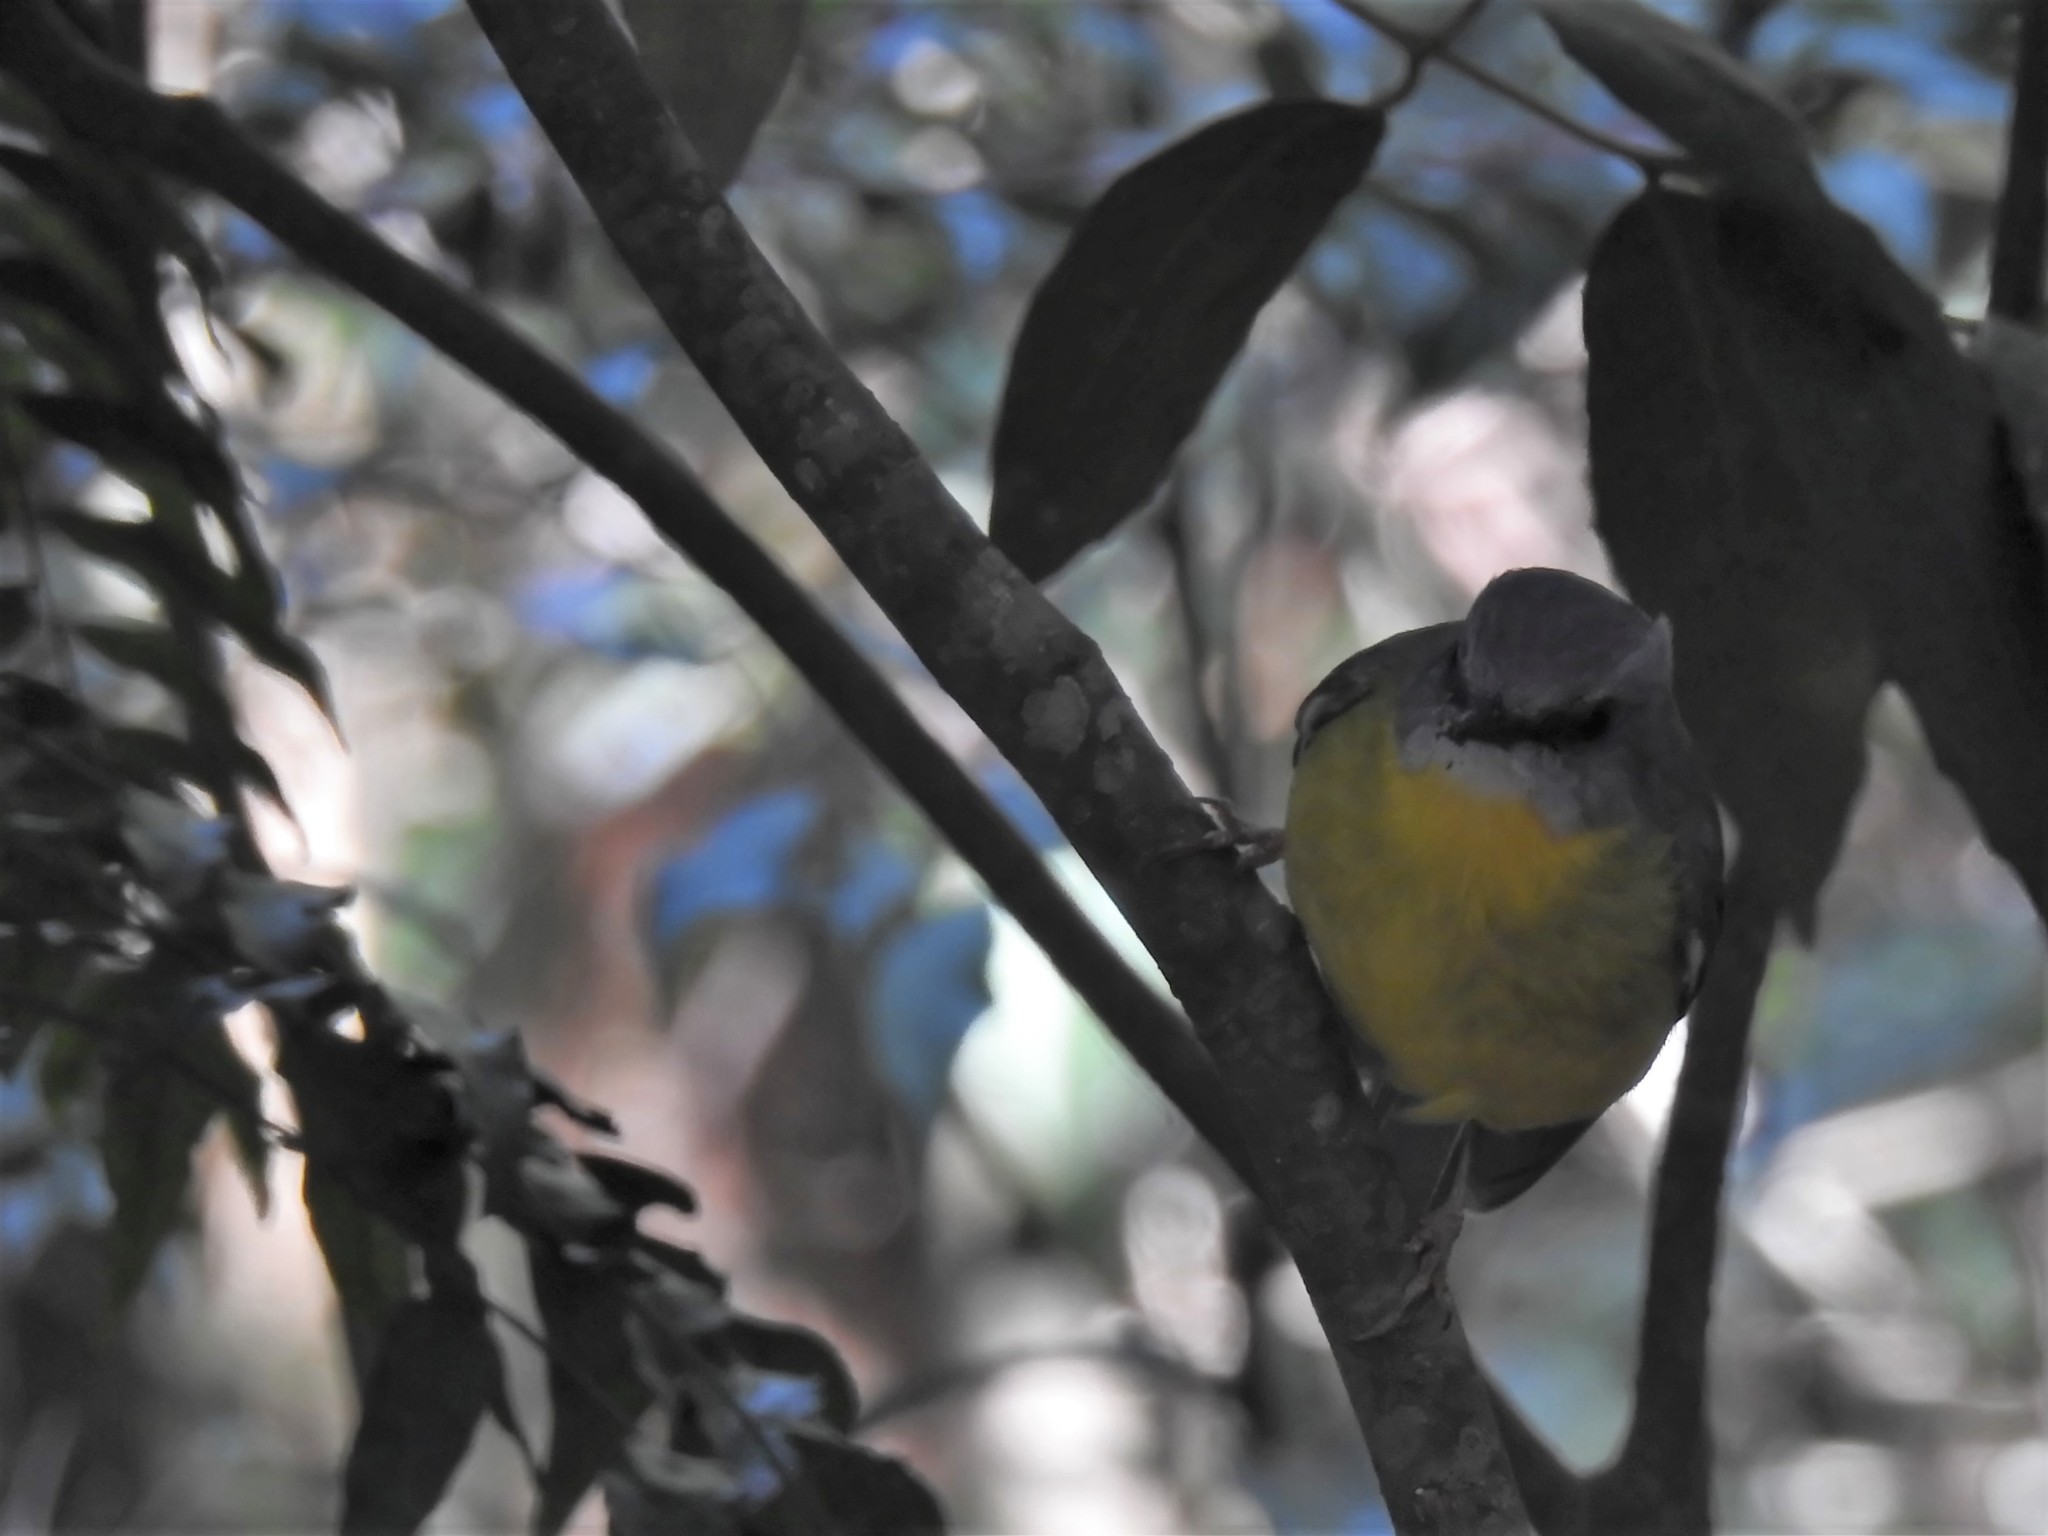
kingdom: Animalia
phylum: Chordata
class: Aves
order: Passeriformes
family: Petroicidae
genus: Eopsaltria
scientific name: Eopsaltria australis
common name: Eastern yellow robin
